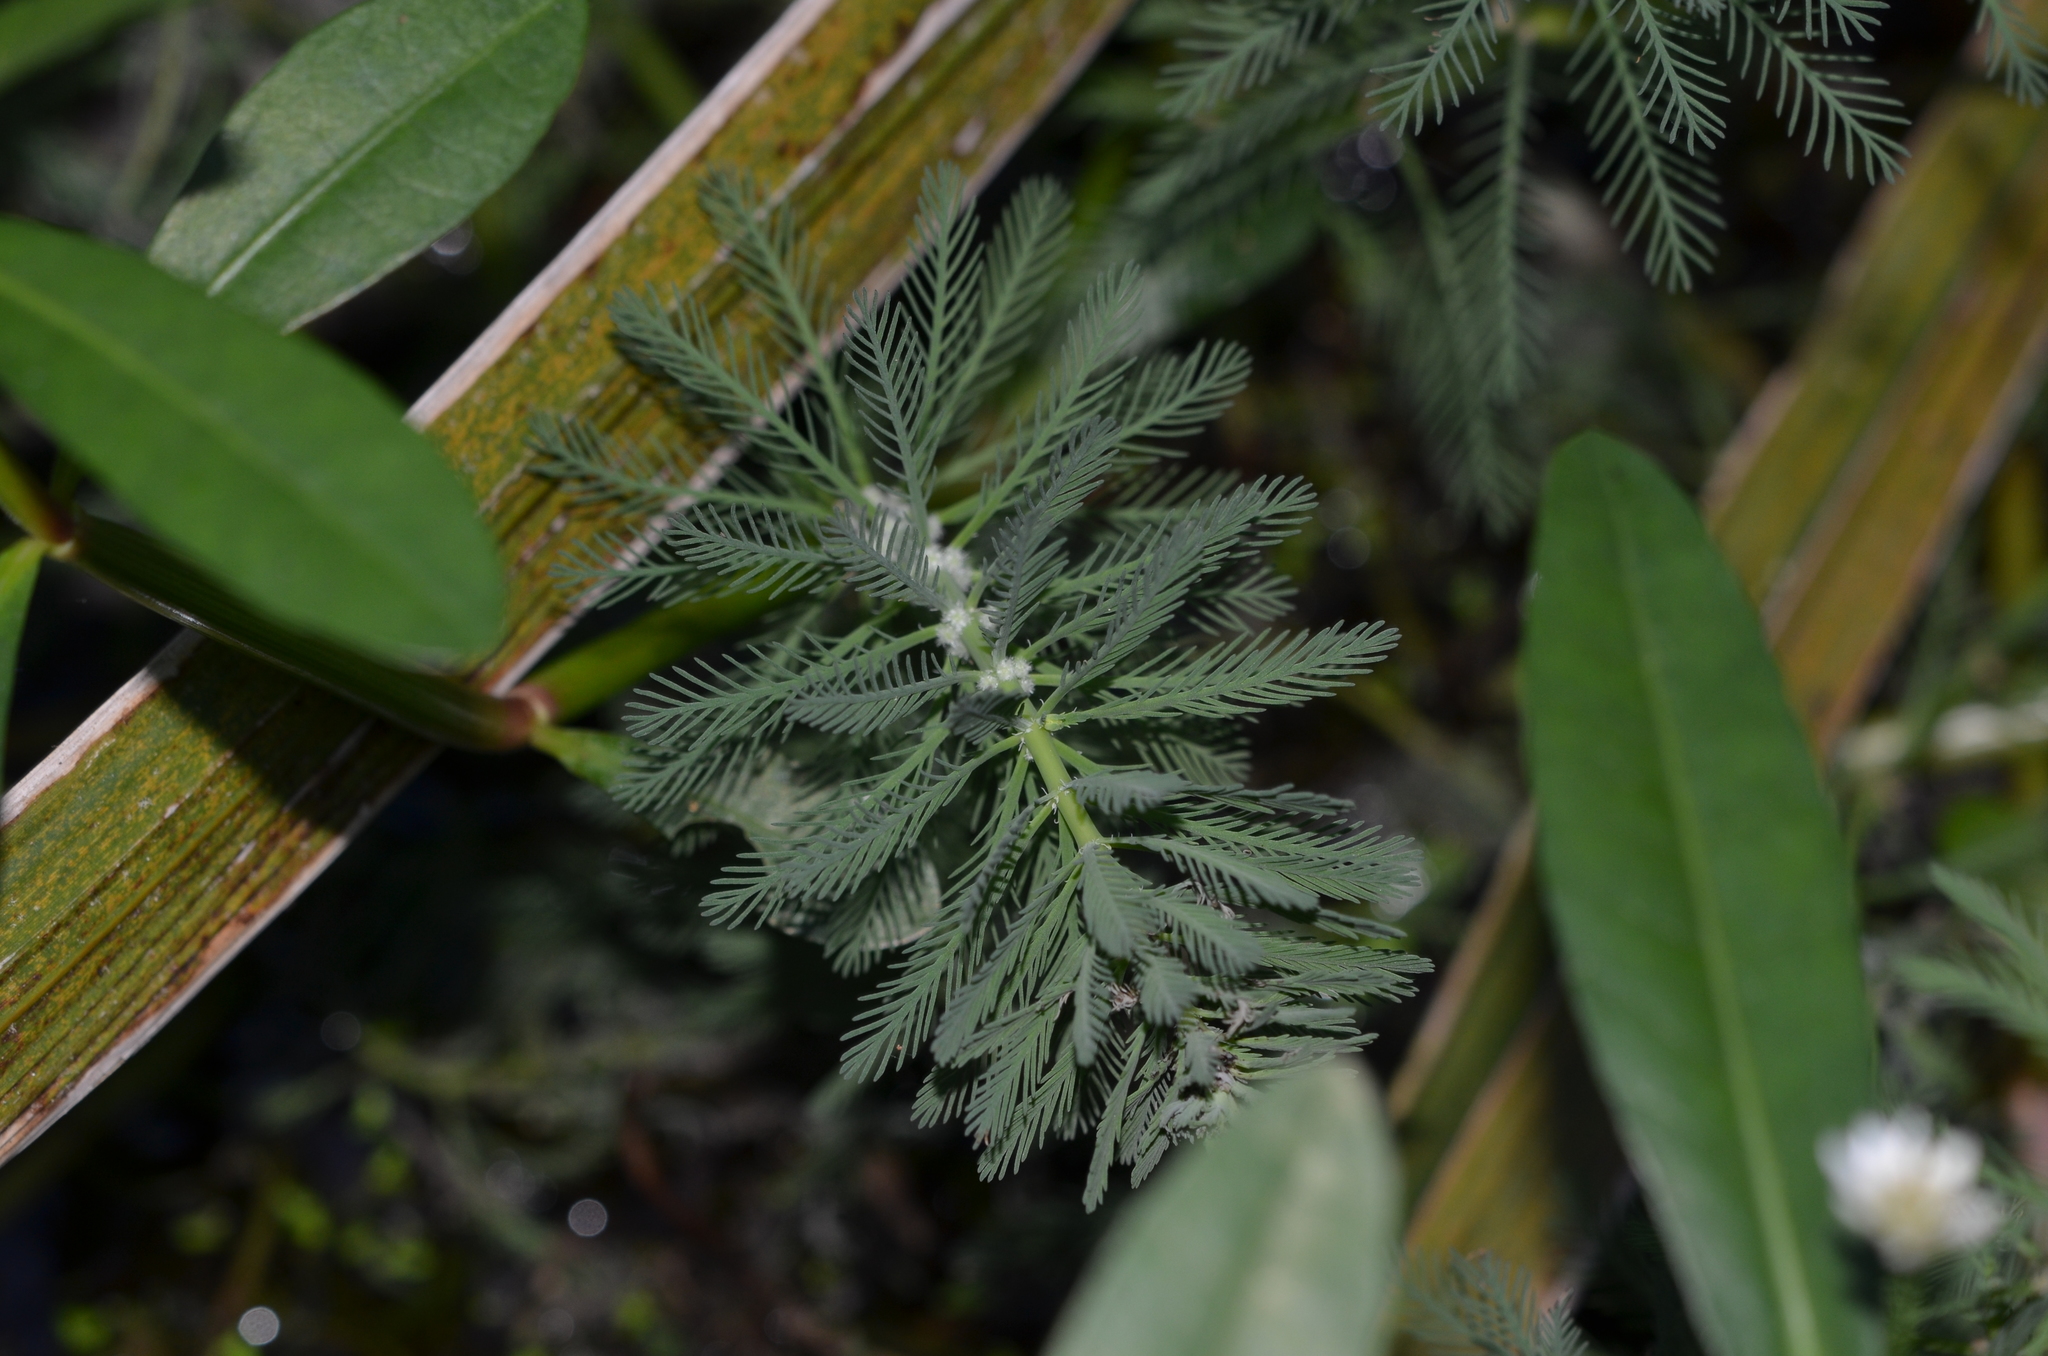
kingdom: Plantae
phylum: Tracheophyta
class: Magnoliopsida
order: Saxifragales
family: Haloragaceae
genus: Myriophyllum
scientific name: Myriophyllum aquaticum
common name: Parrot's feather
